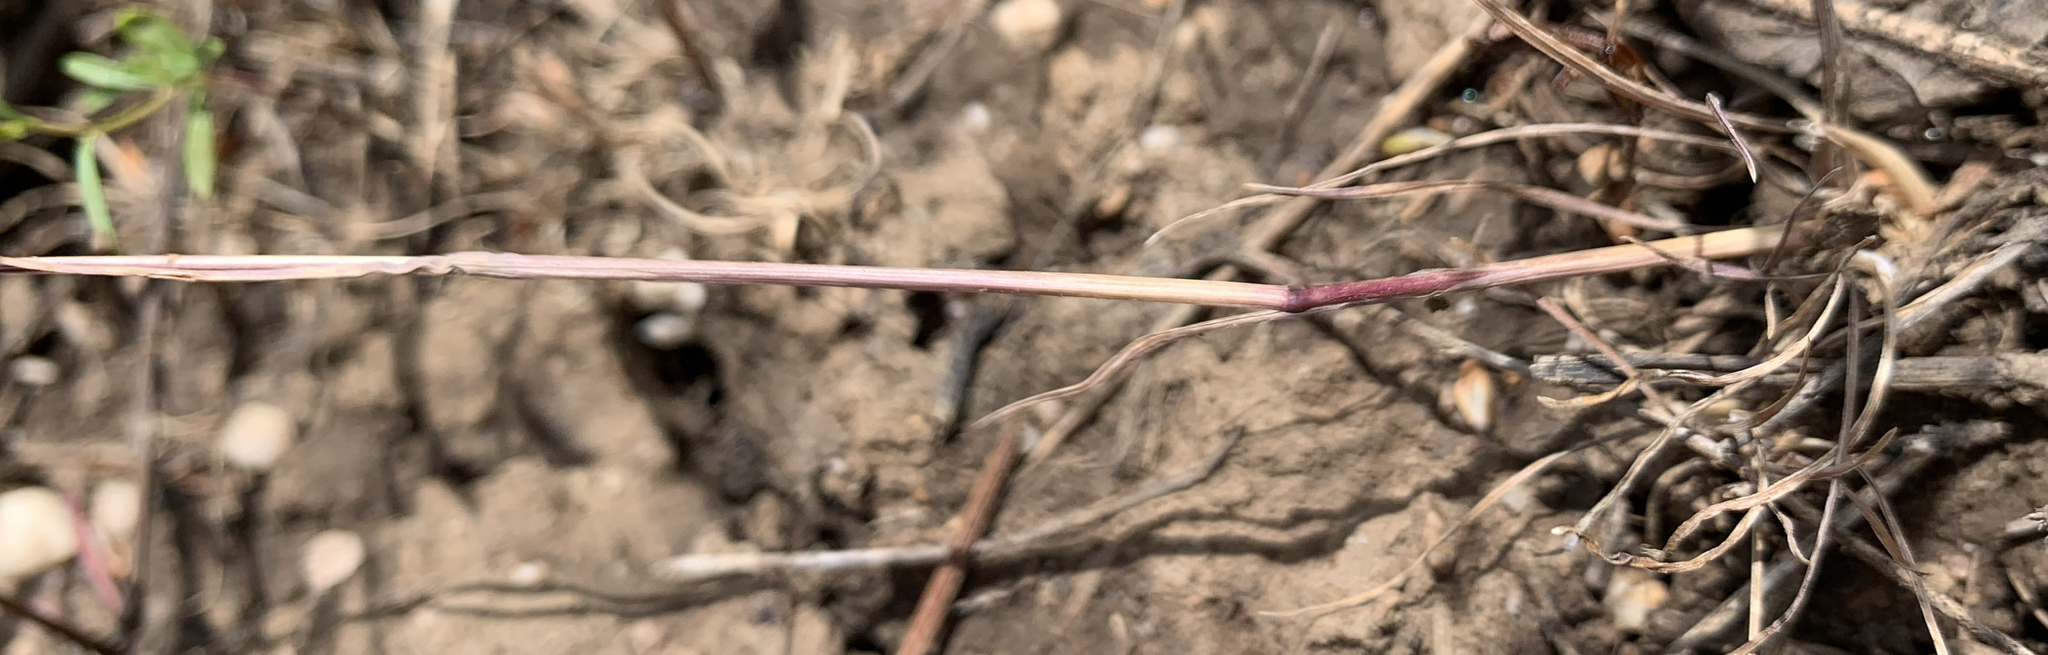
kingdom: Plantae
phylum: Tracheophyta
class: Liliopsida
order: Poales
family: Poaceae
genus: Poa
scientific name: Poa alpina
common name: Alpine bluegrass
